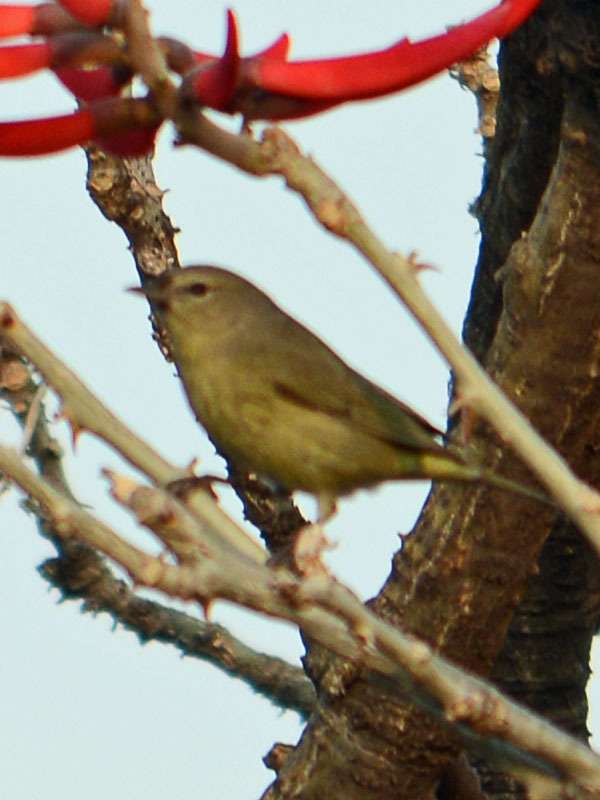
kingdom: Animalia
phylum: Chordata
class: Aves
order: Passeriformes
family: Parulidae
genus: Leiothlypis
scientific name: Leiothlypis celata
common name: Orange-crowned warbler
